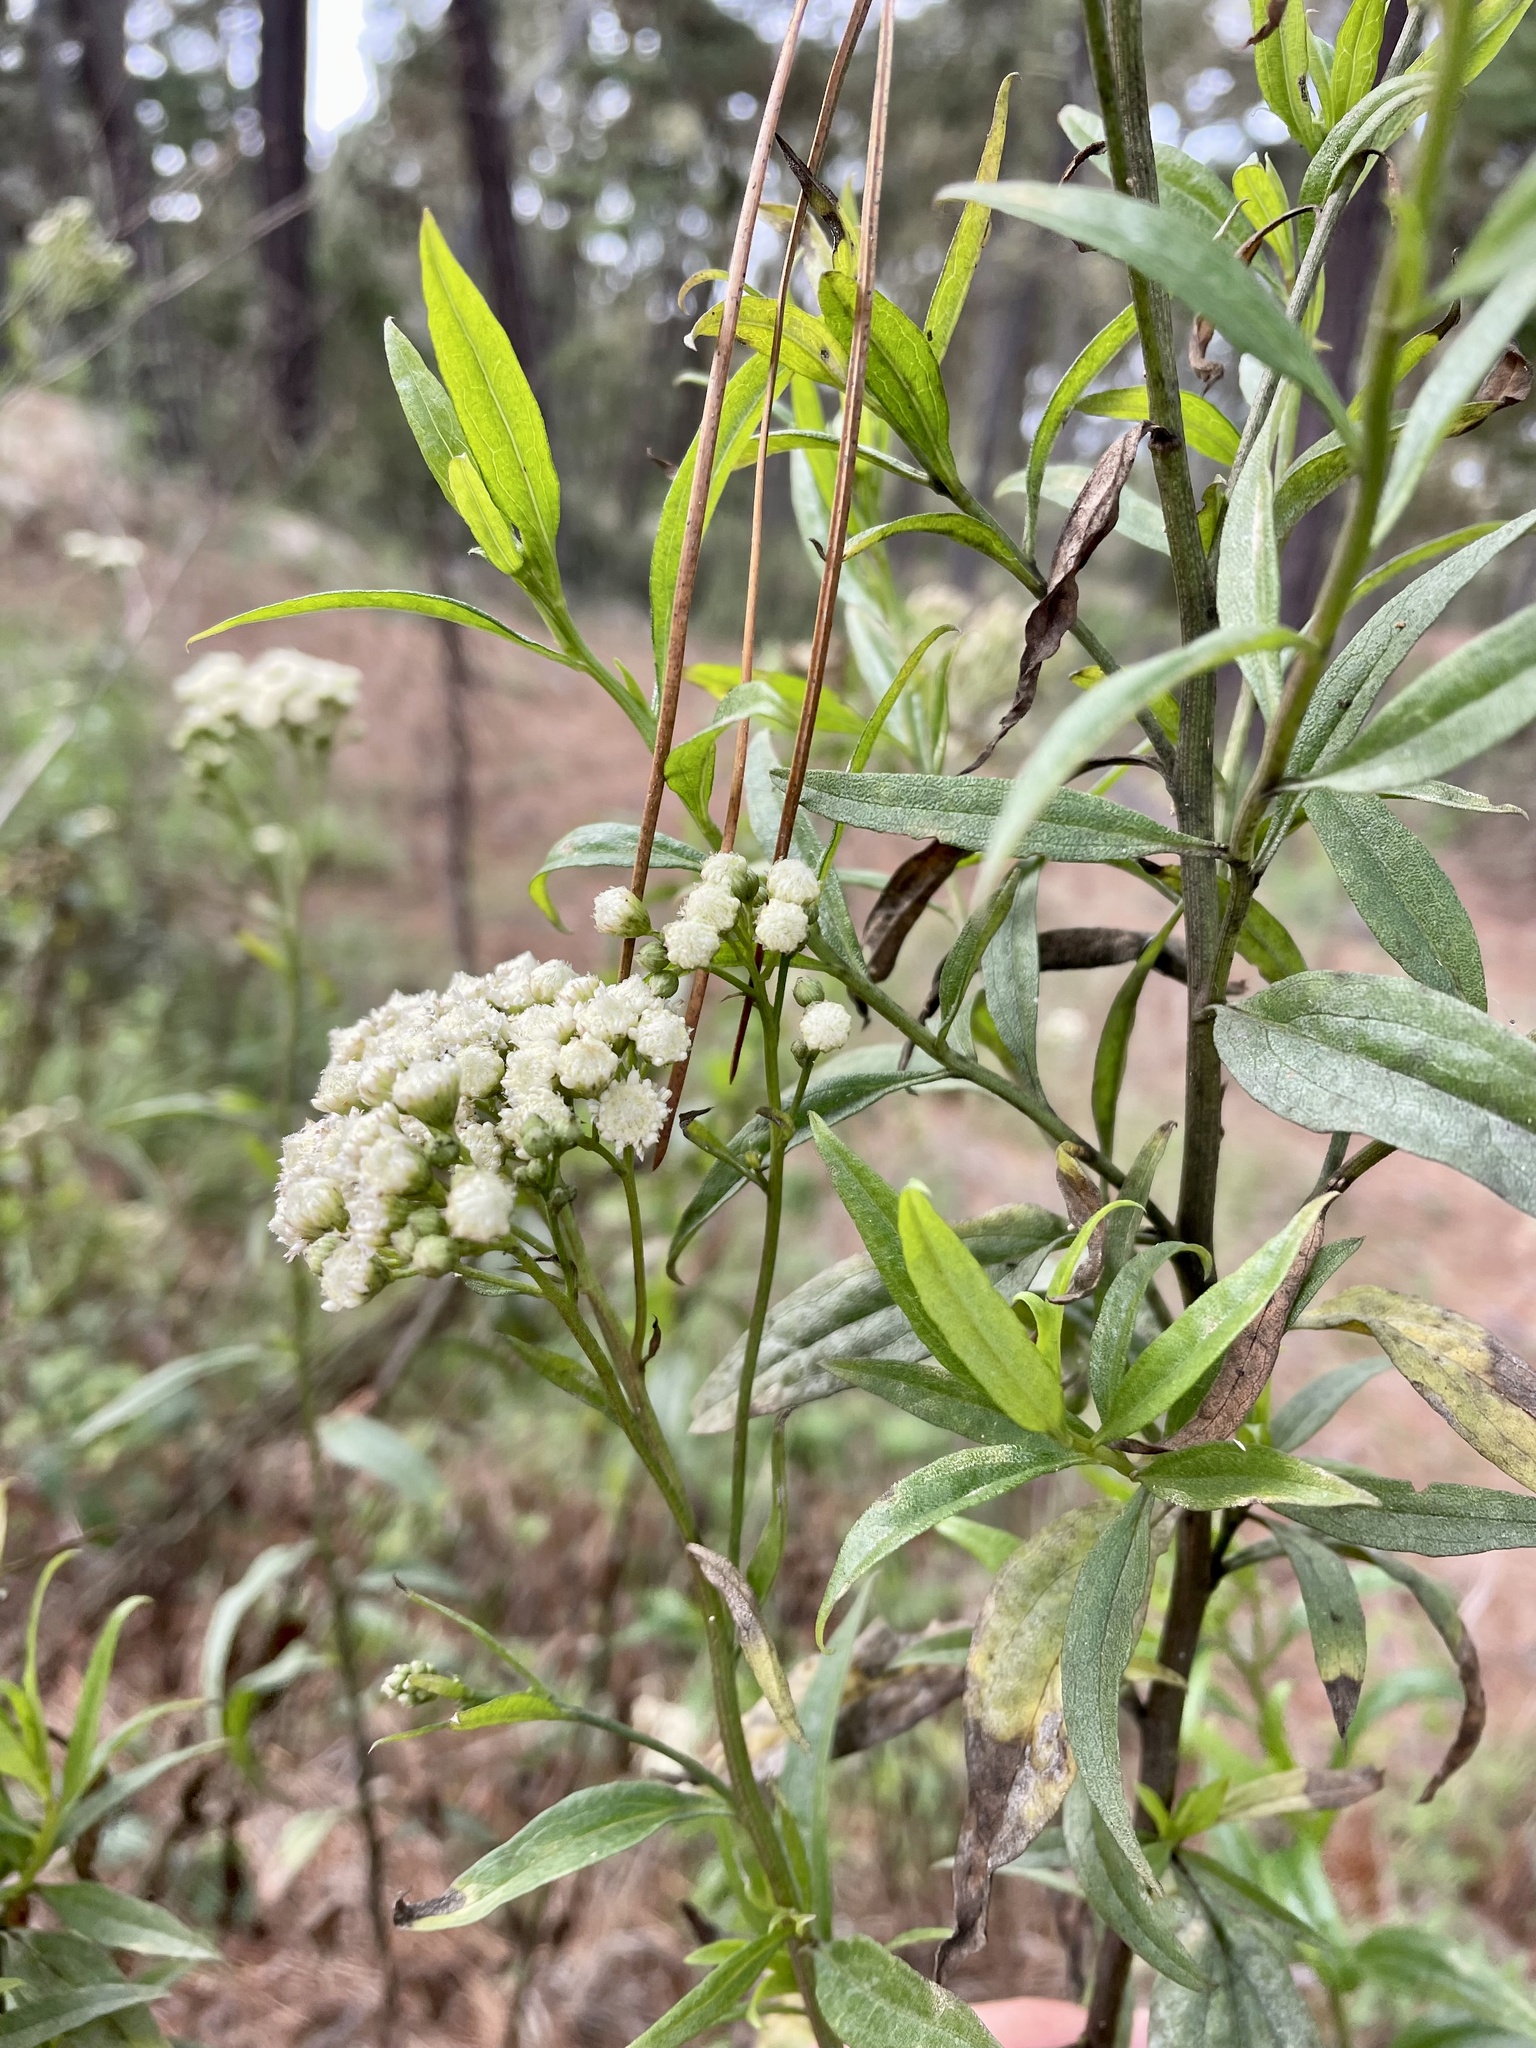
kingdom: Plantae
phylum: Tracheophyta
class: Magnoliopsida
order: Asterales
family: Asteraceae
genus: Baccharis
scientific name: Baccharis glutinosa
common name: Saltmarsh baccharis
